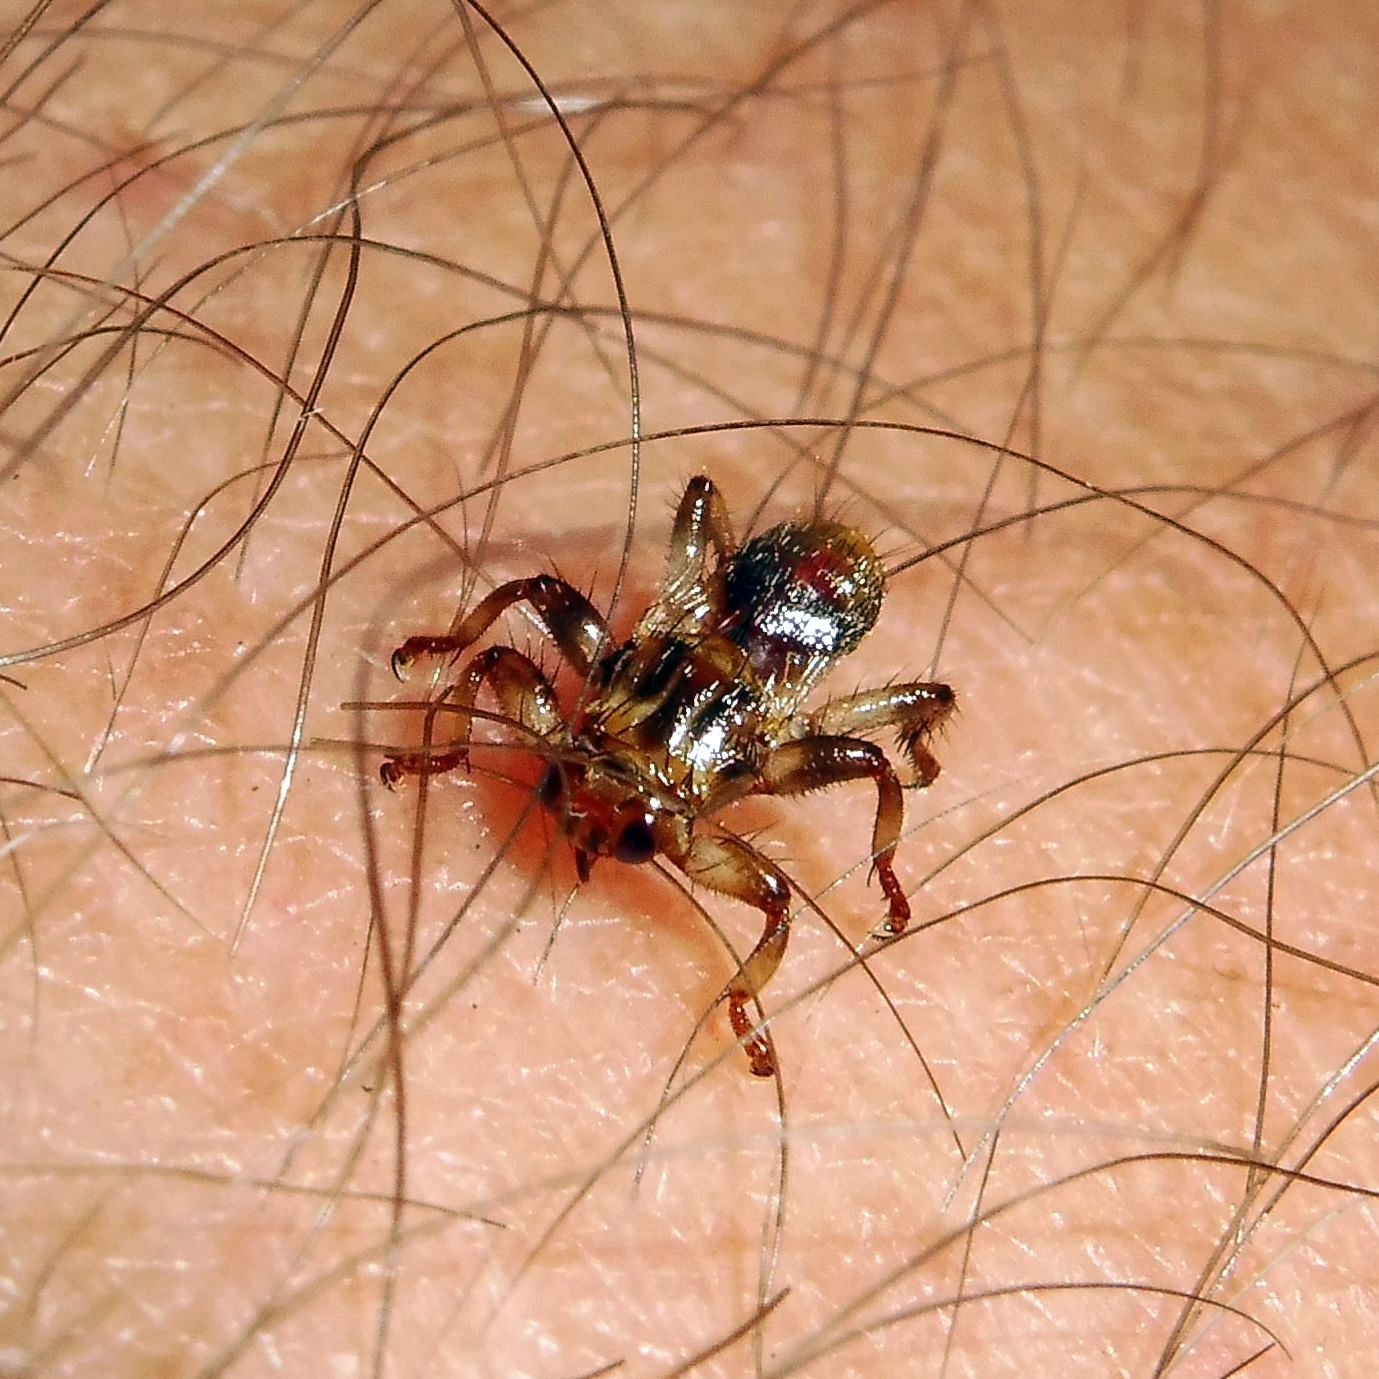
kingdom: Animalia
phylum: Arthropoda
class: Insecta
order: Diptera
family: Hippoboscidae
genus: Lipoptena
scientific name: Lipoptena cervi
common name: Deer ked
